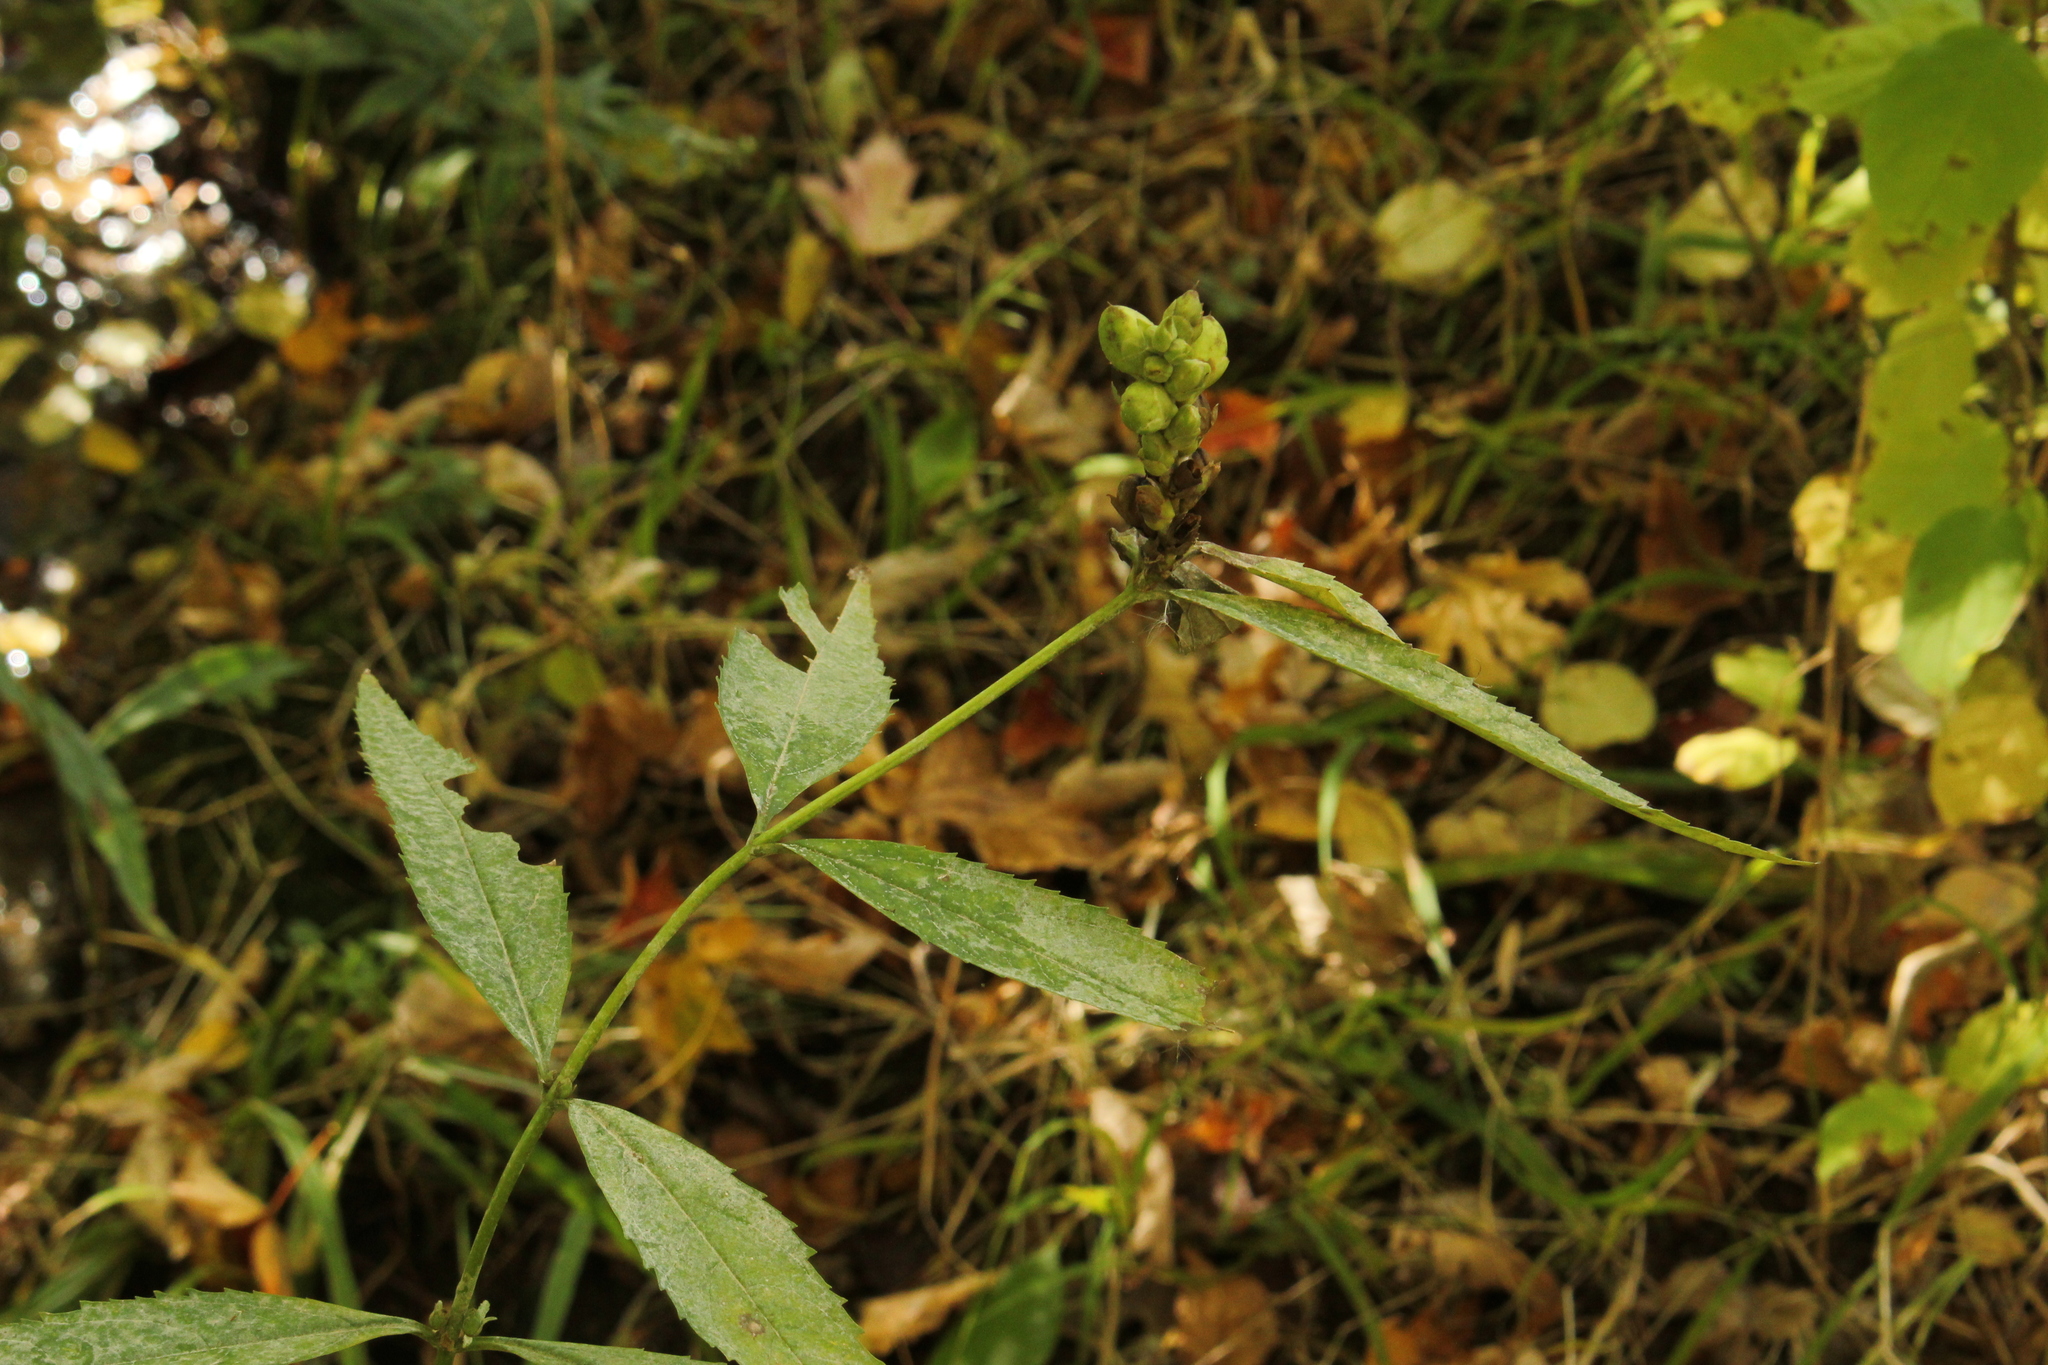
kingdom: Plantae
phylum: Tracheophyta
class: Magnoliopsida
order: Lamiales
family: Plantaginaceae
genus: Chelone
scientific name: Chelone glabra
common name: Snakehead
